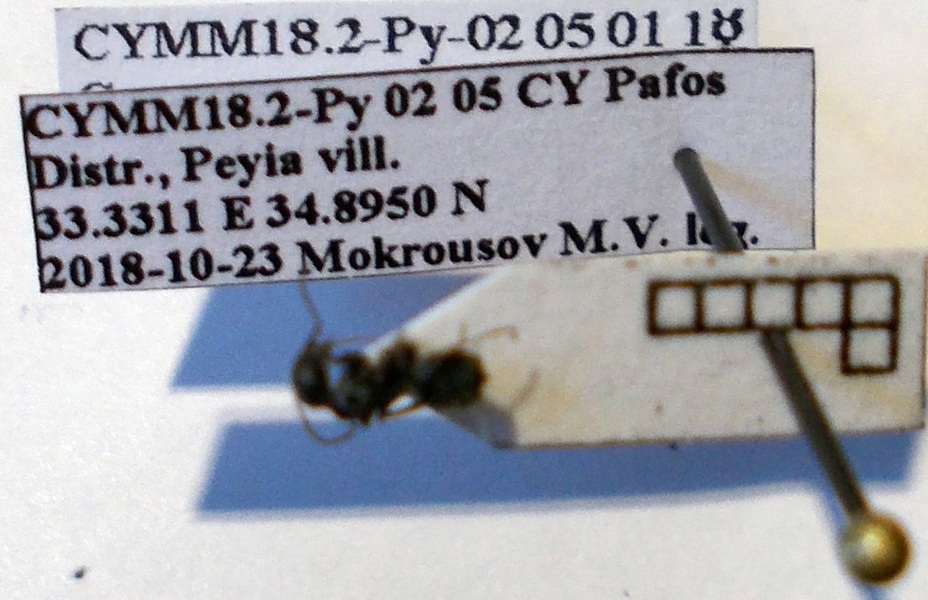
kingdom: Animalia
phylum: Arthropoda
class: Insecta
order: Hymenoptera
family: Formicidae
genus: Camponotus
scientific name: Camponotus libanicus
